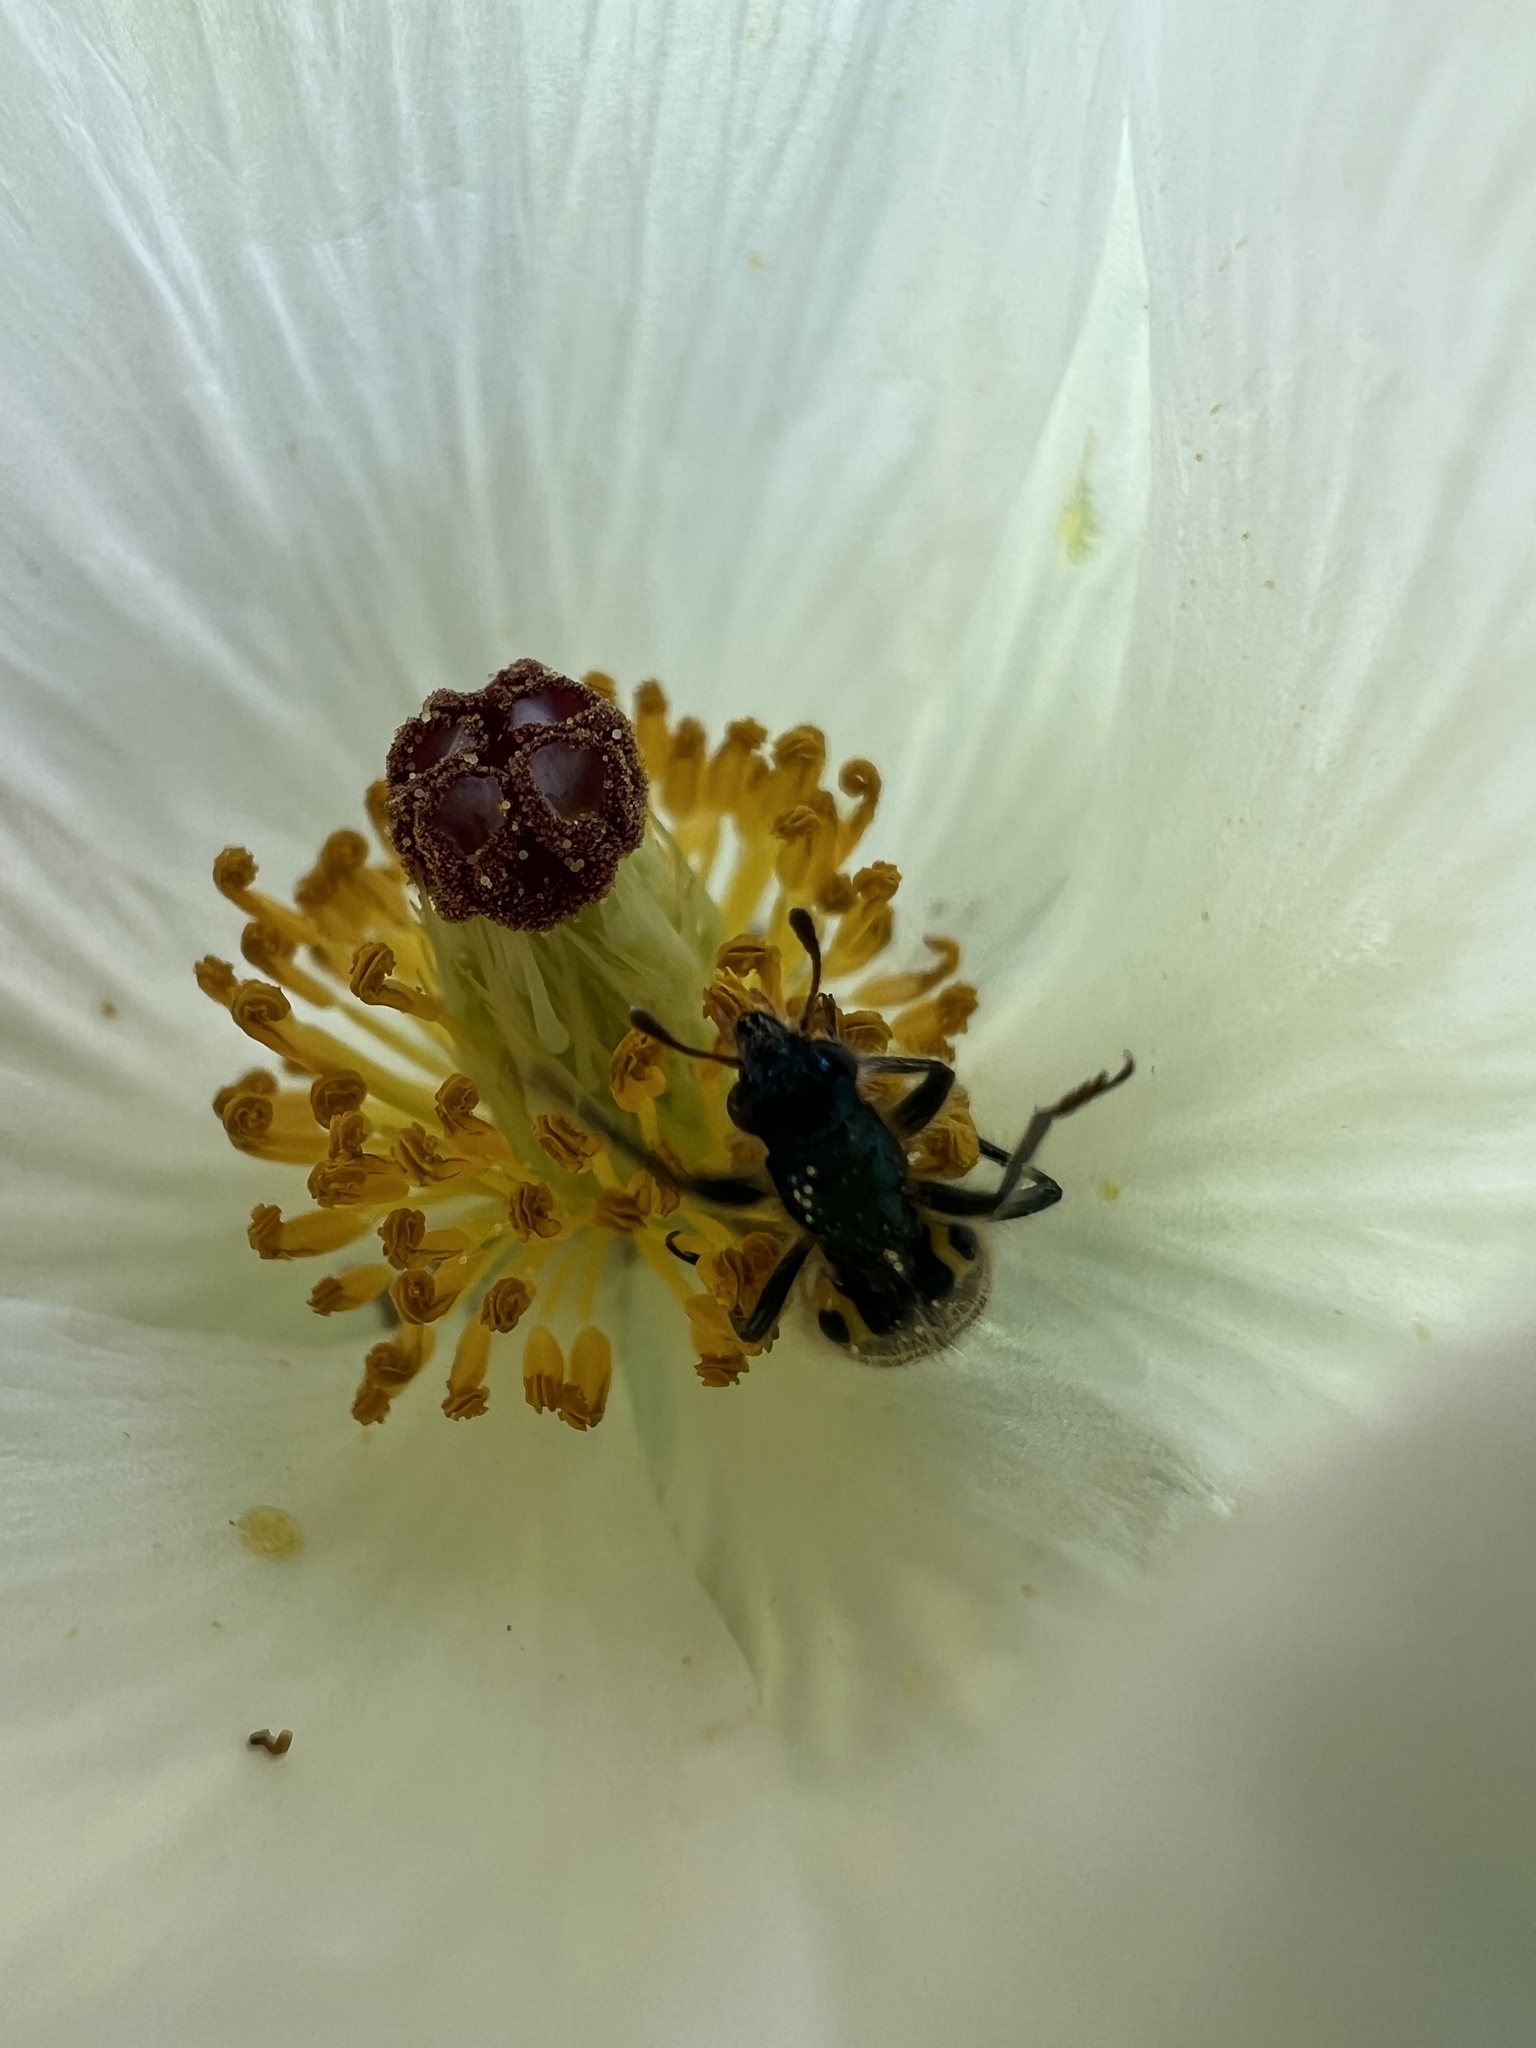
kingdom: Animalia
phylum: Arthropoda
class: Insecta
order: Coleoptera
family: Cleridae
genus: Trichodes
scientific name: Trichodes ornatus
